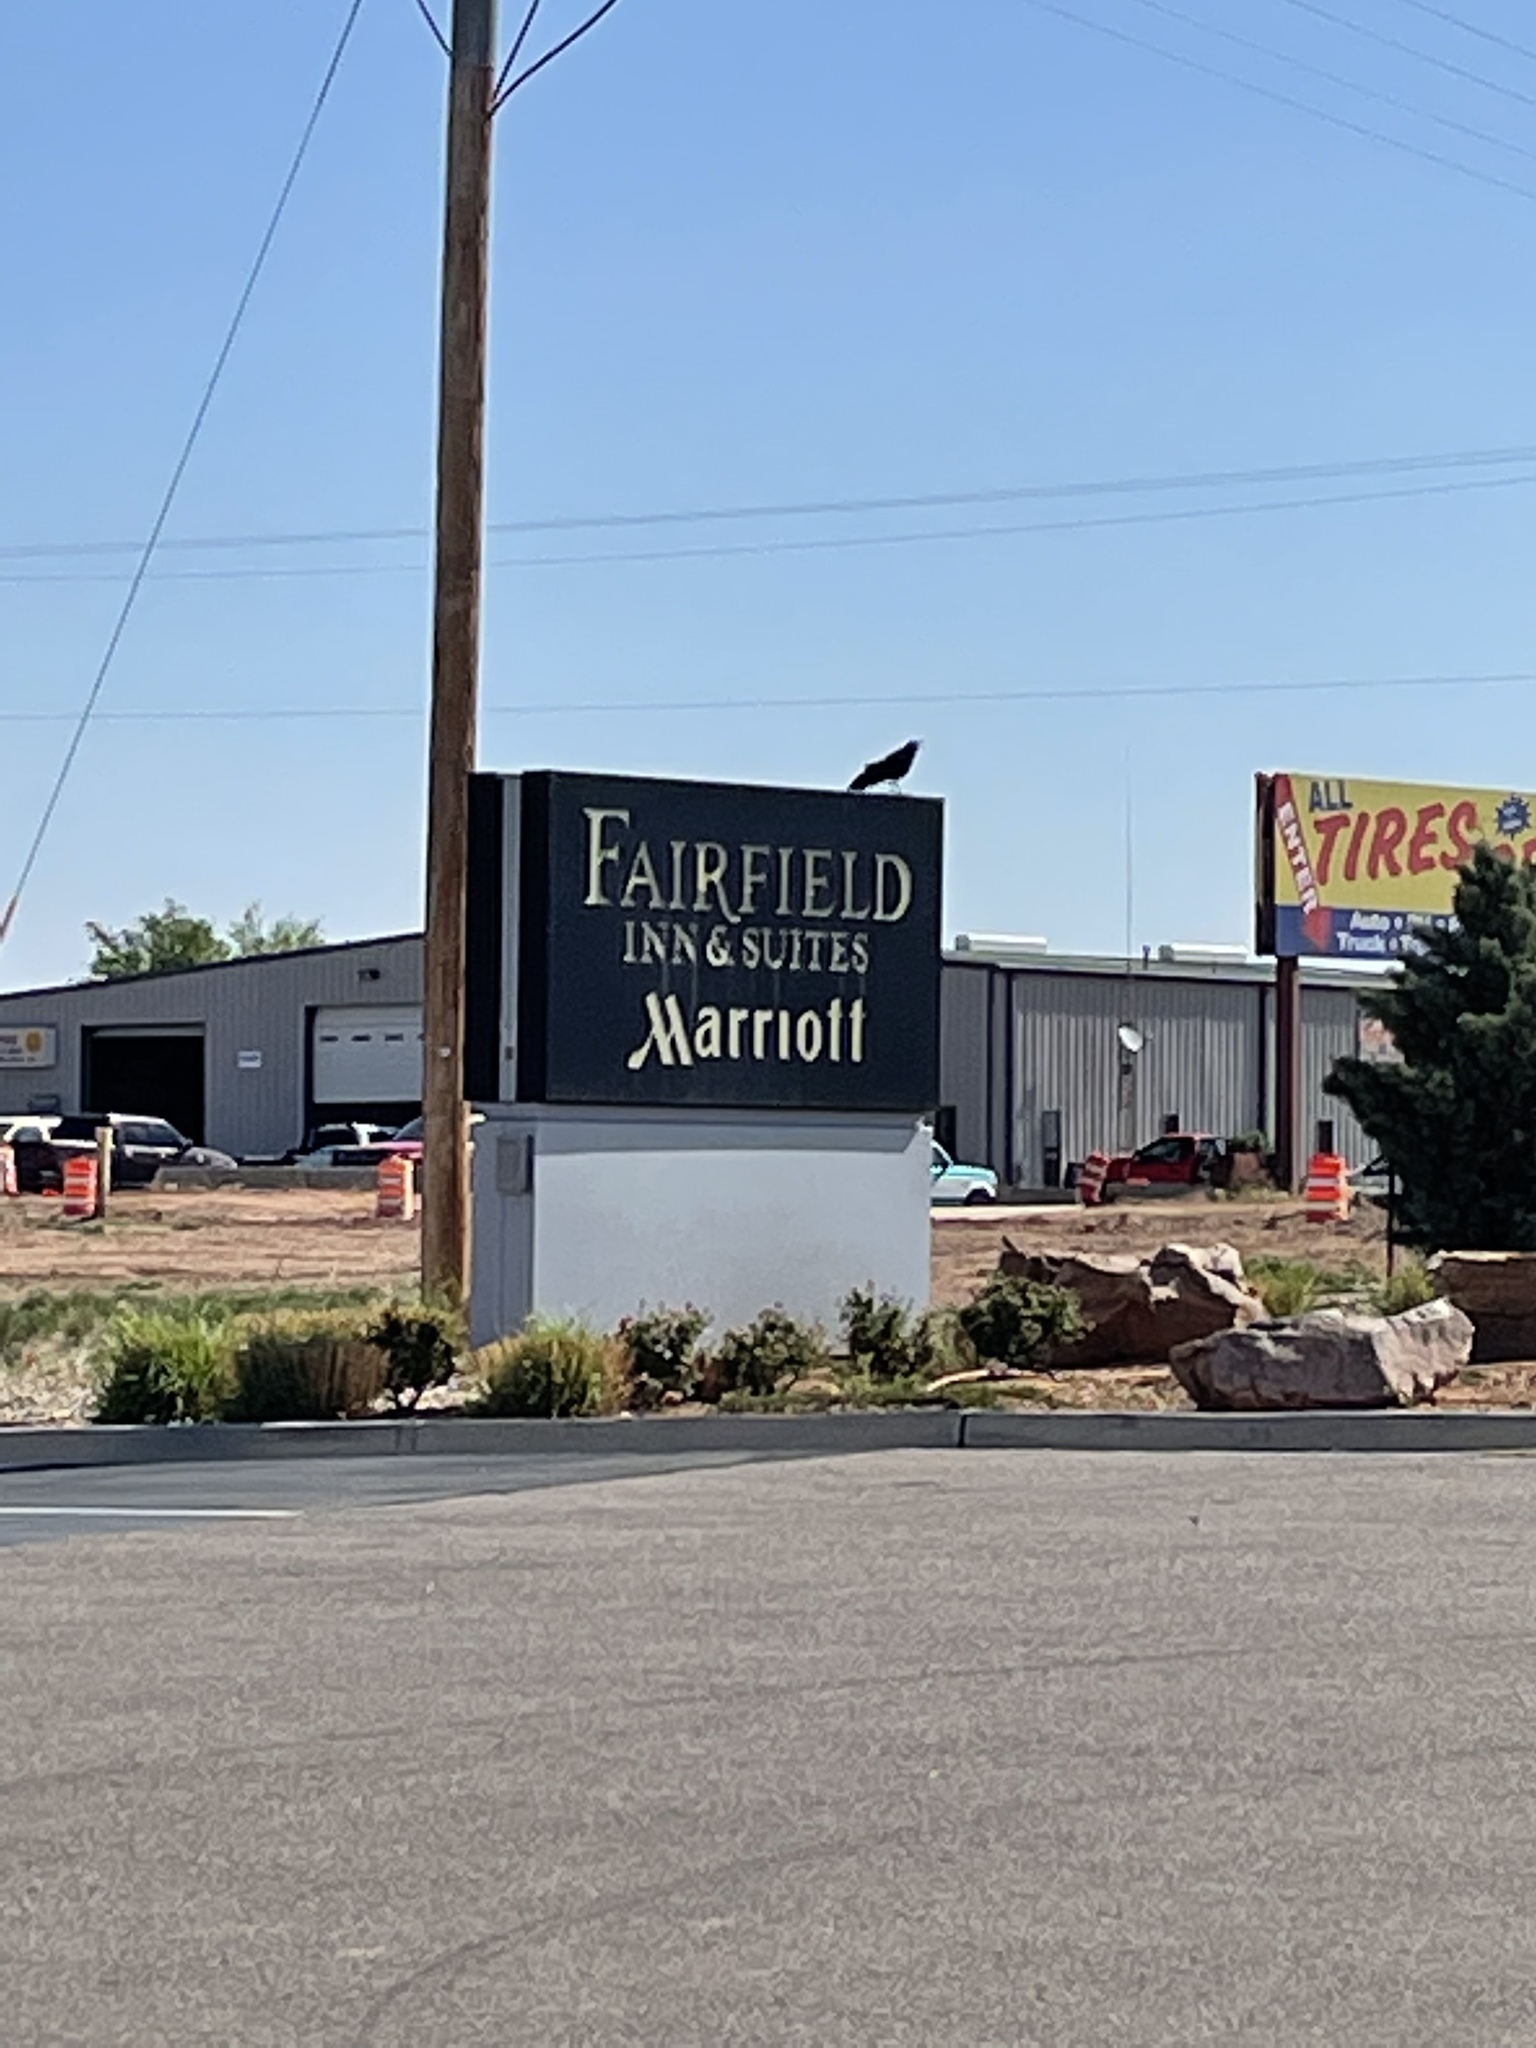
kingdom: Animalia
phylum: Chordata
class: Aves
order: Passeriformes
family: Icteridae
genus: Quiscalus
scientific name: Quiscalus mexicanus
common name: Great-tailed grackle
